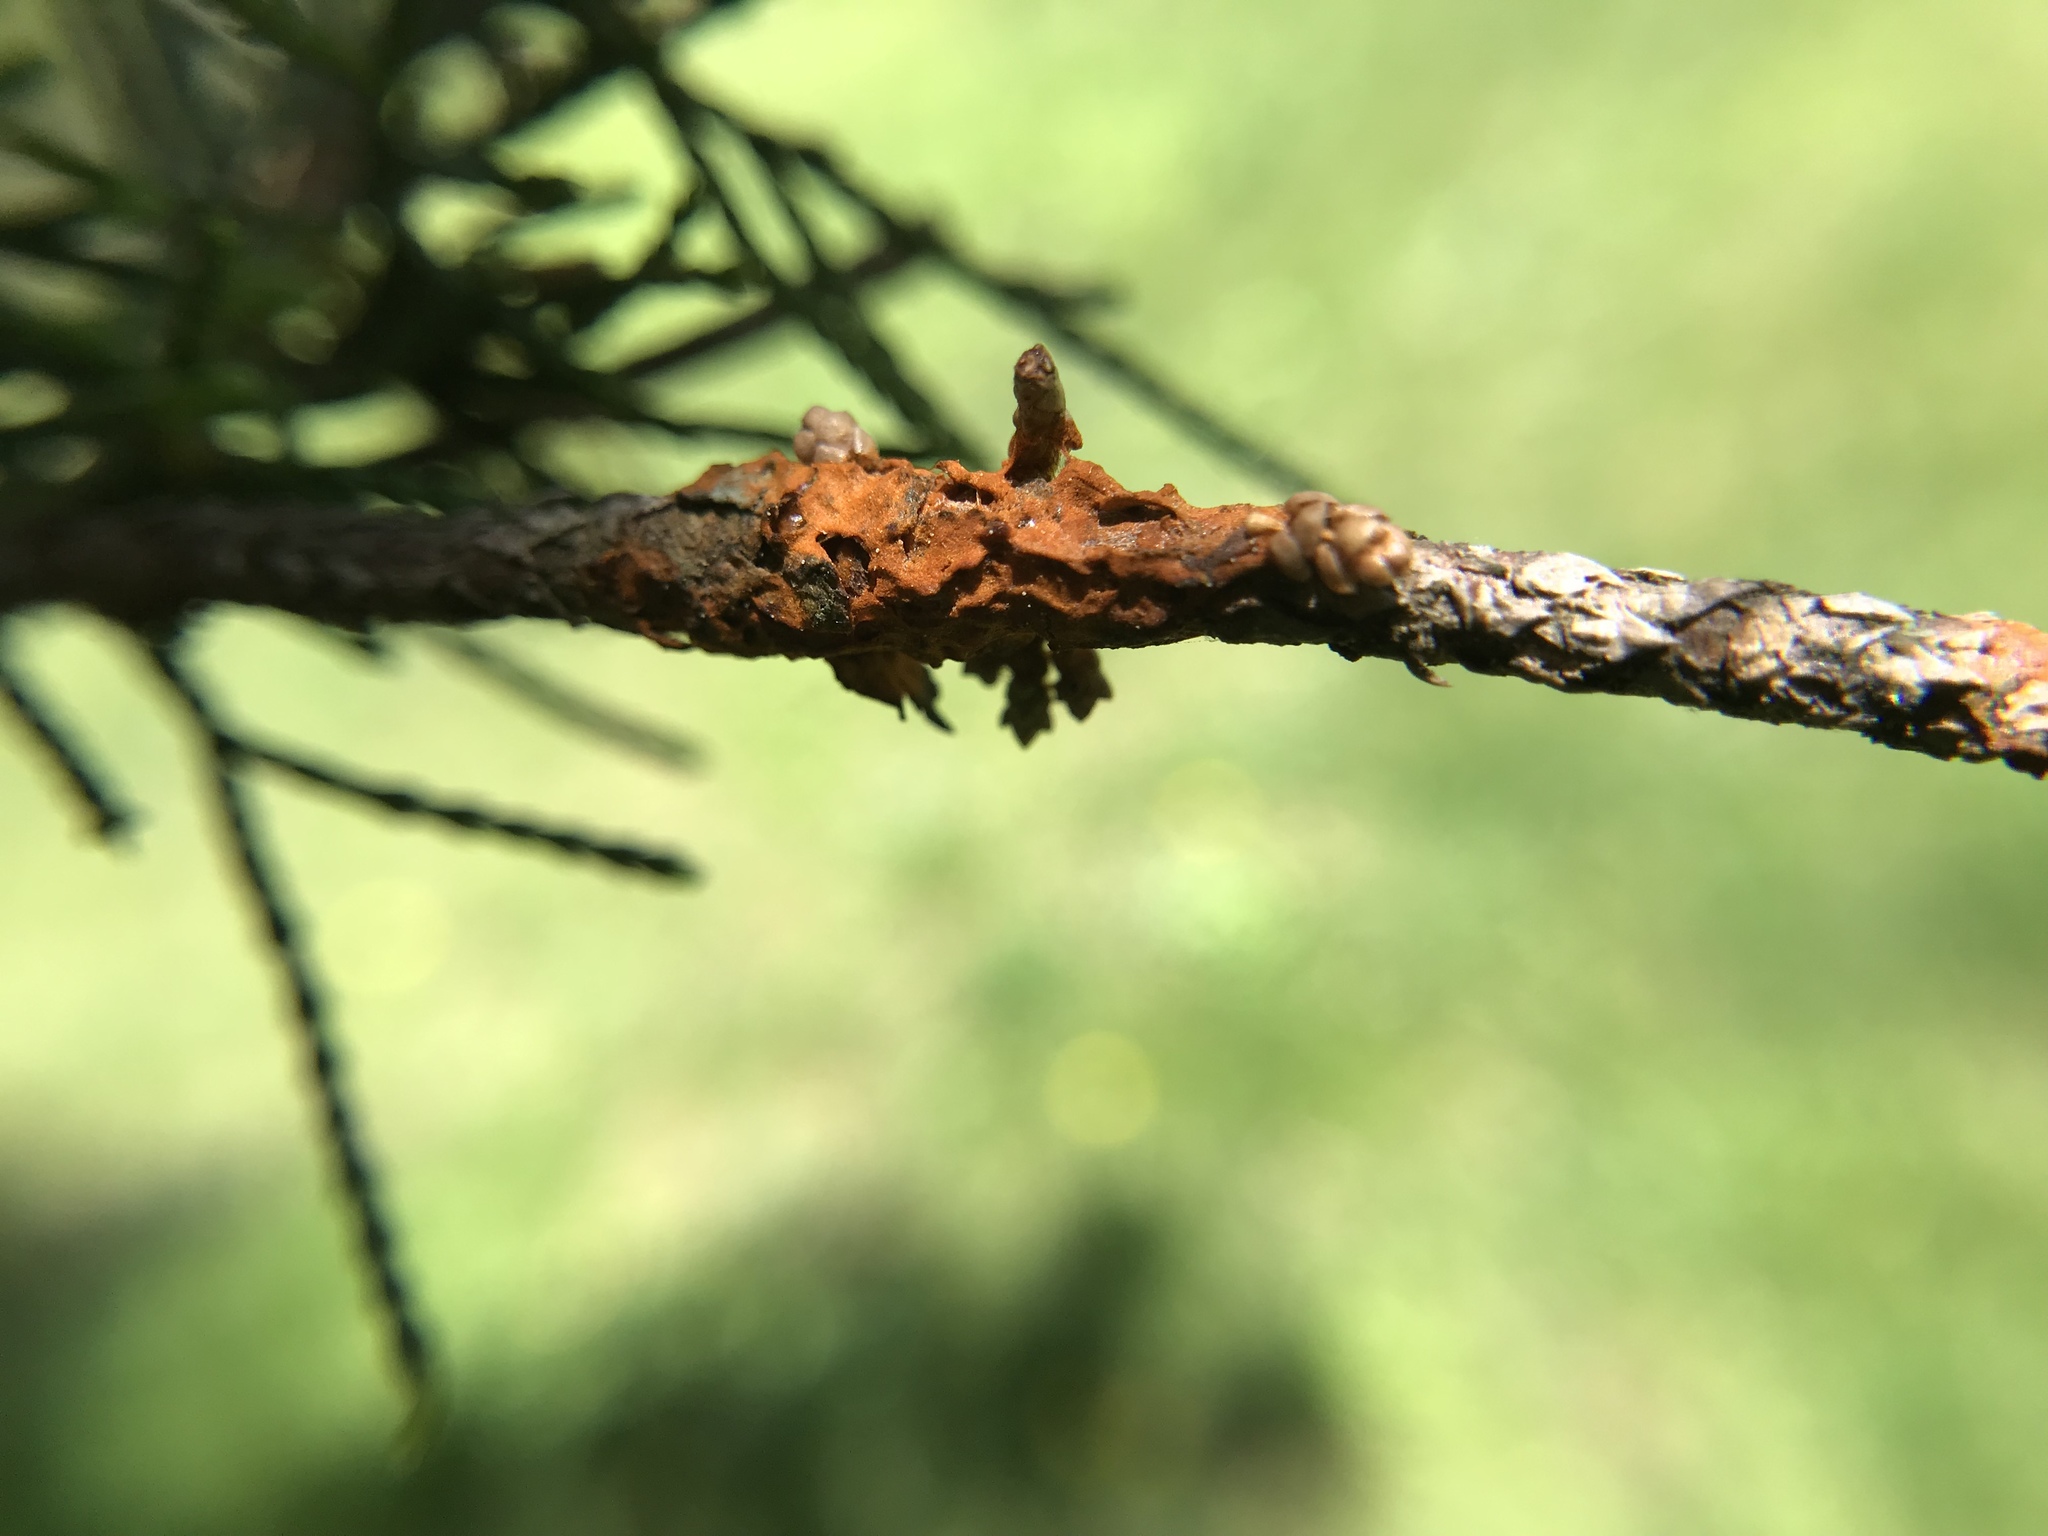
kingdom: Fungi
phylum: Basidiomycota
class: Pucciniomycetes
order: Pucciniales
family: Gymnosporangiaceae
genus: Gymnosporangium
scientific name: Gymnosporangium juniperi-virginianae
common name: Juniper-apple rust
